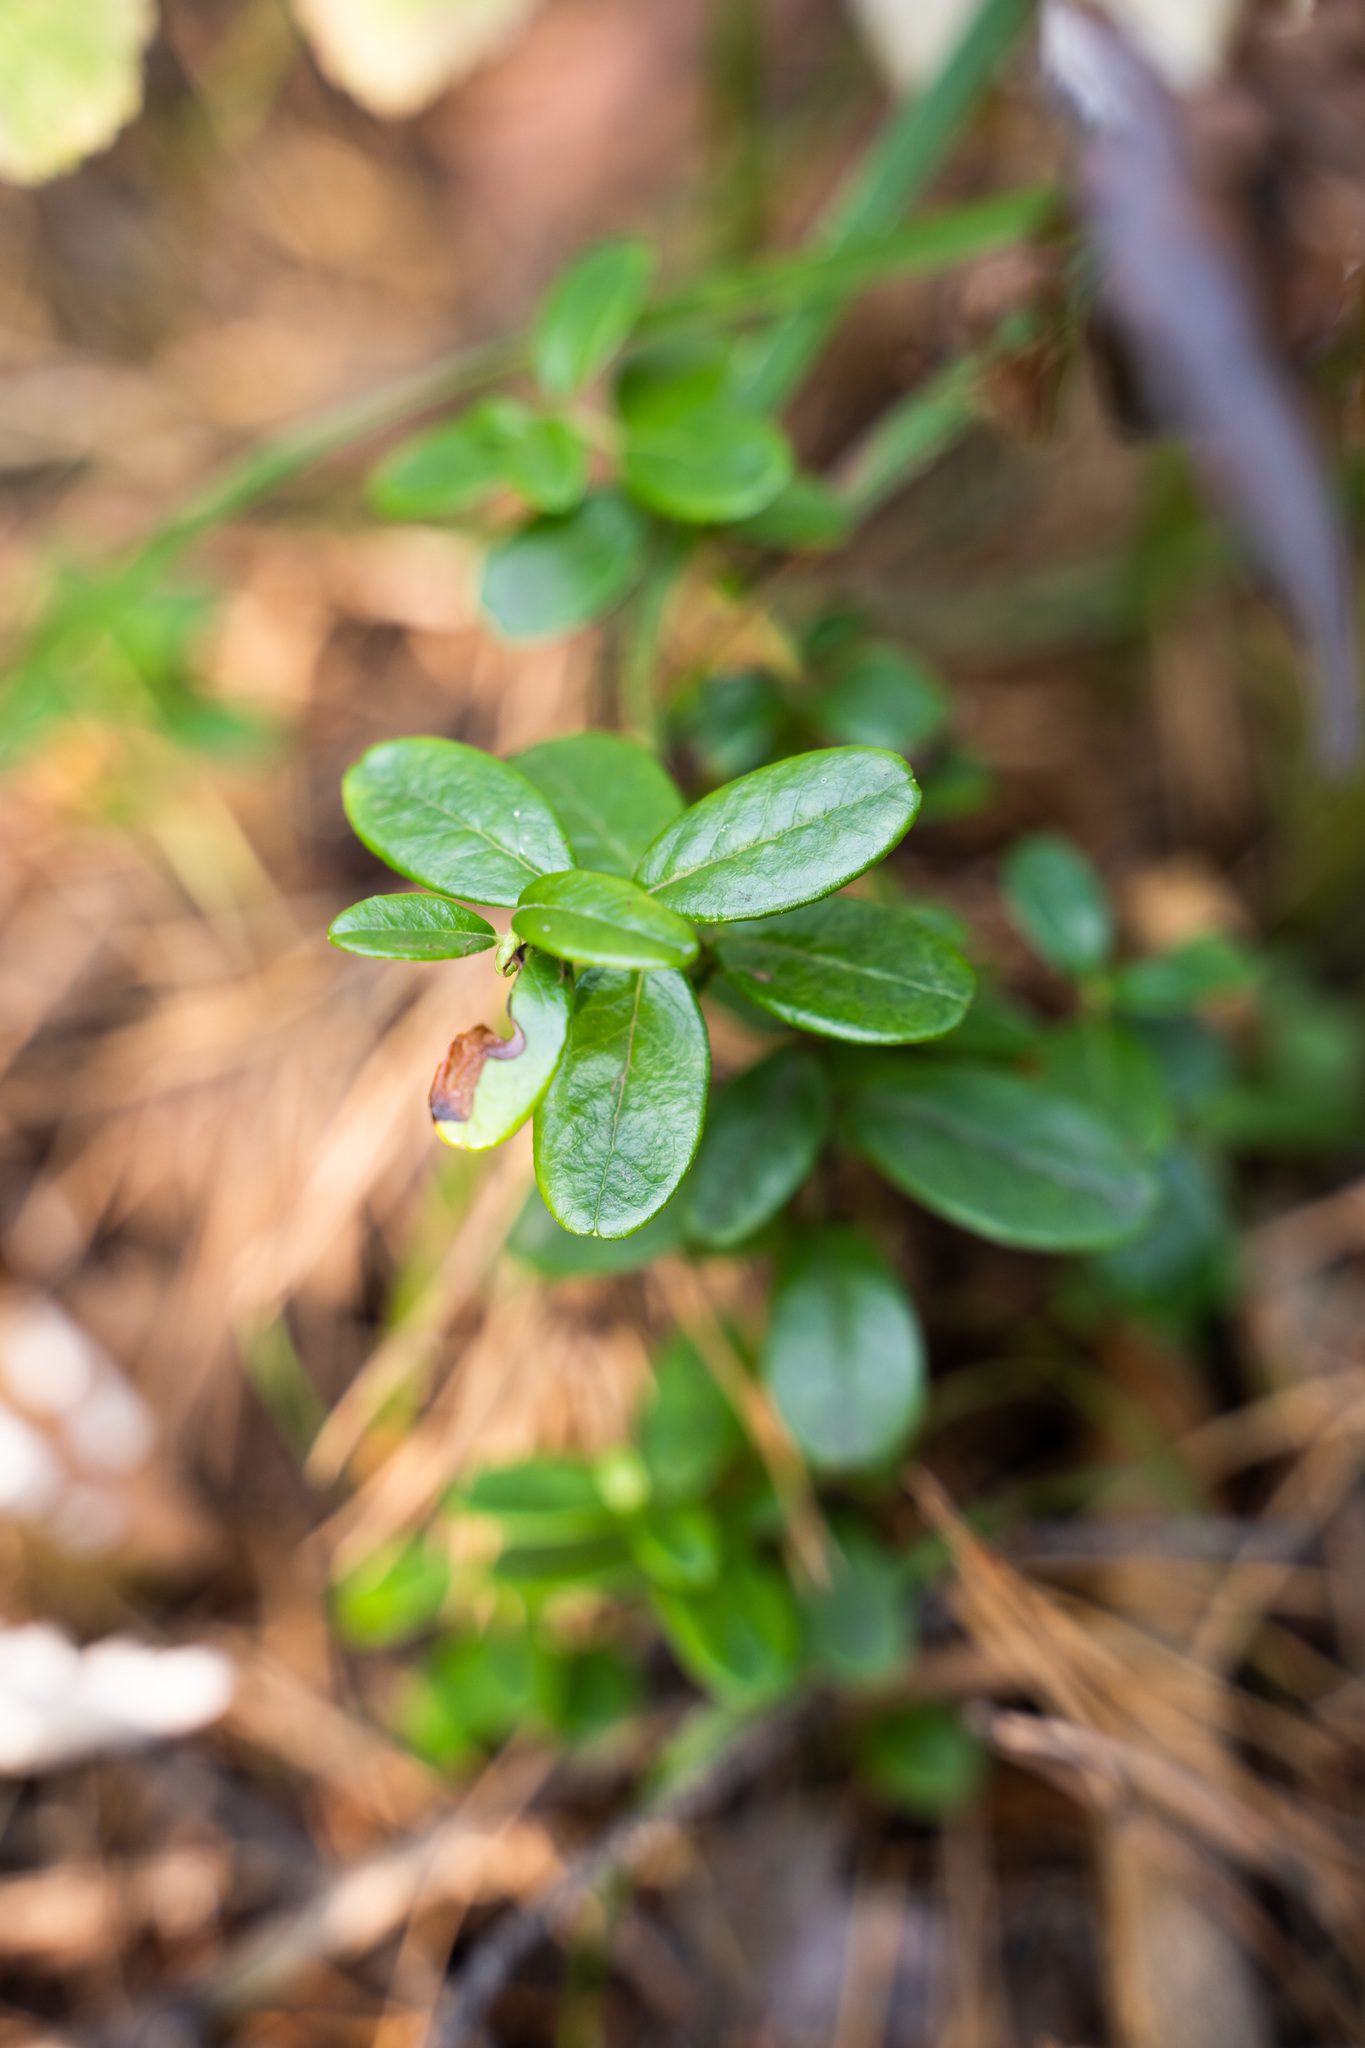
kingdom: Plantae
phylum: Tracheophyta
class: Magnoliopsida
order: Ericales
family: Ericaceae
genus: Vaccinium
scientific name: Vaccinium vitis-idaea
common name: Cowberry
